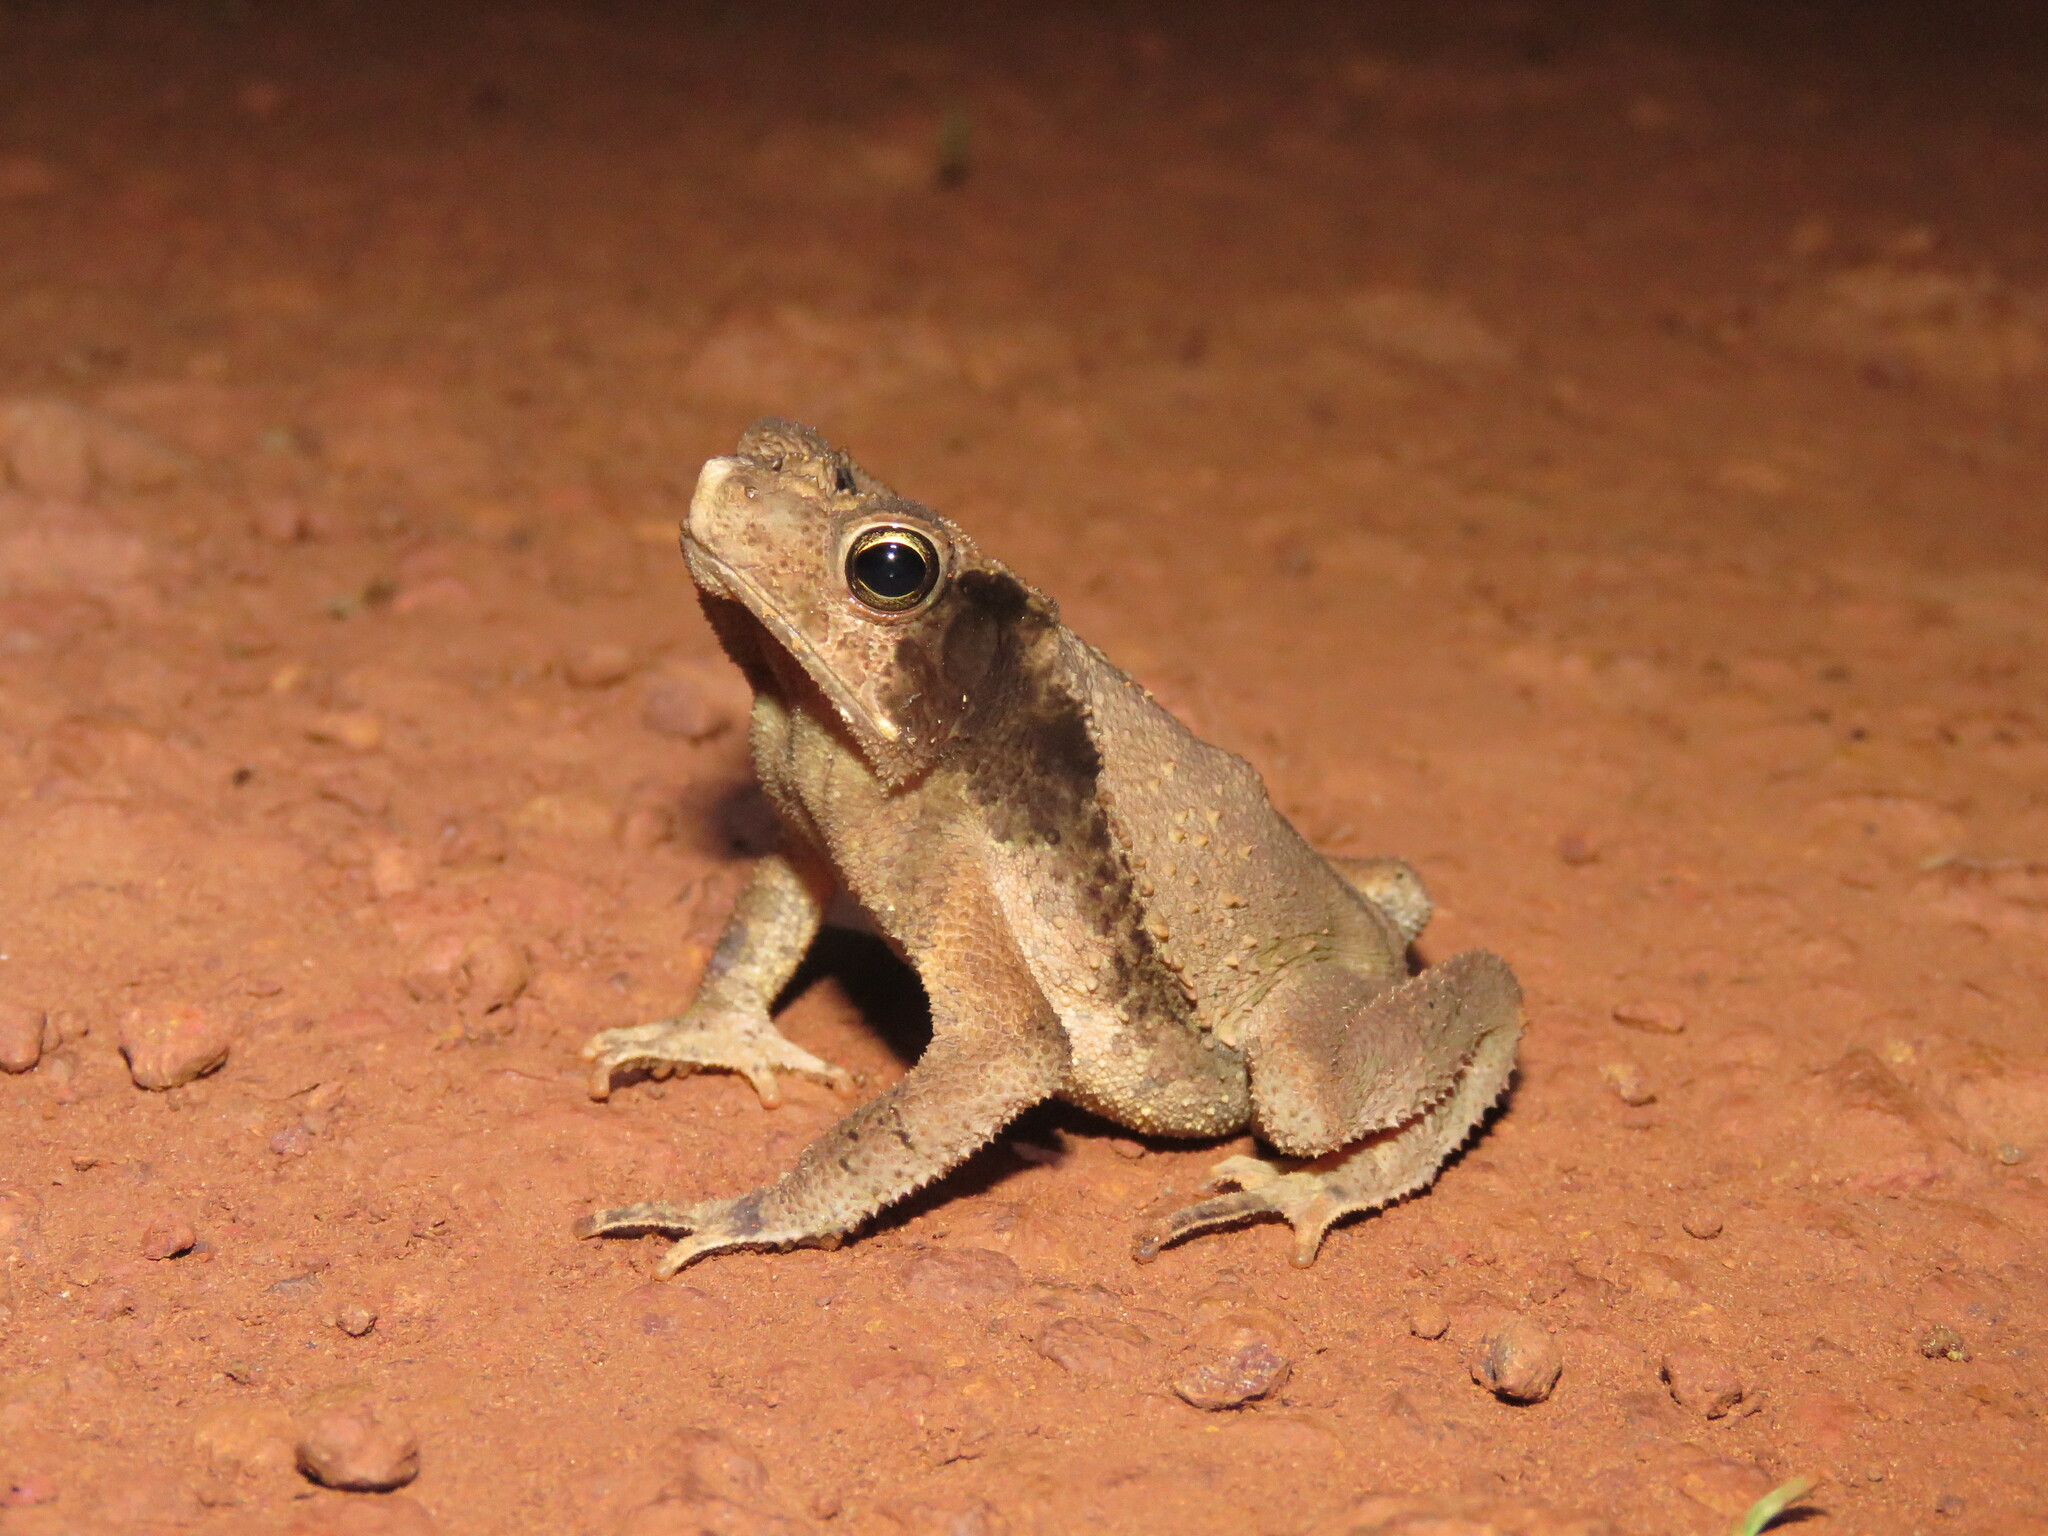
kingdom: Animalia
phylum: Chordata
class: Amphibia
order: Anura
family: Bufonidae
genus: Rhinella
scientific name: Rhinella exostosica
